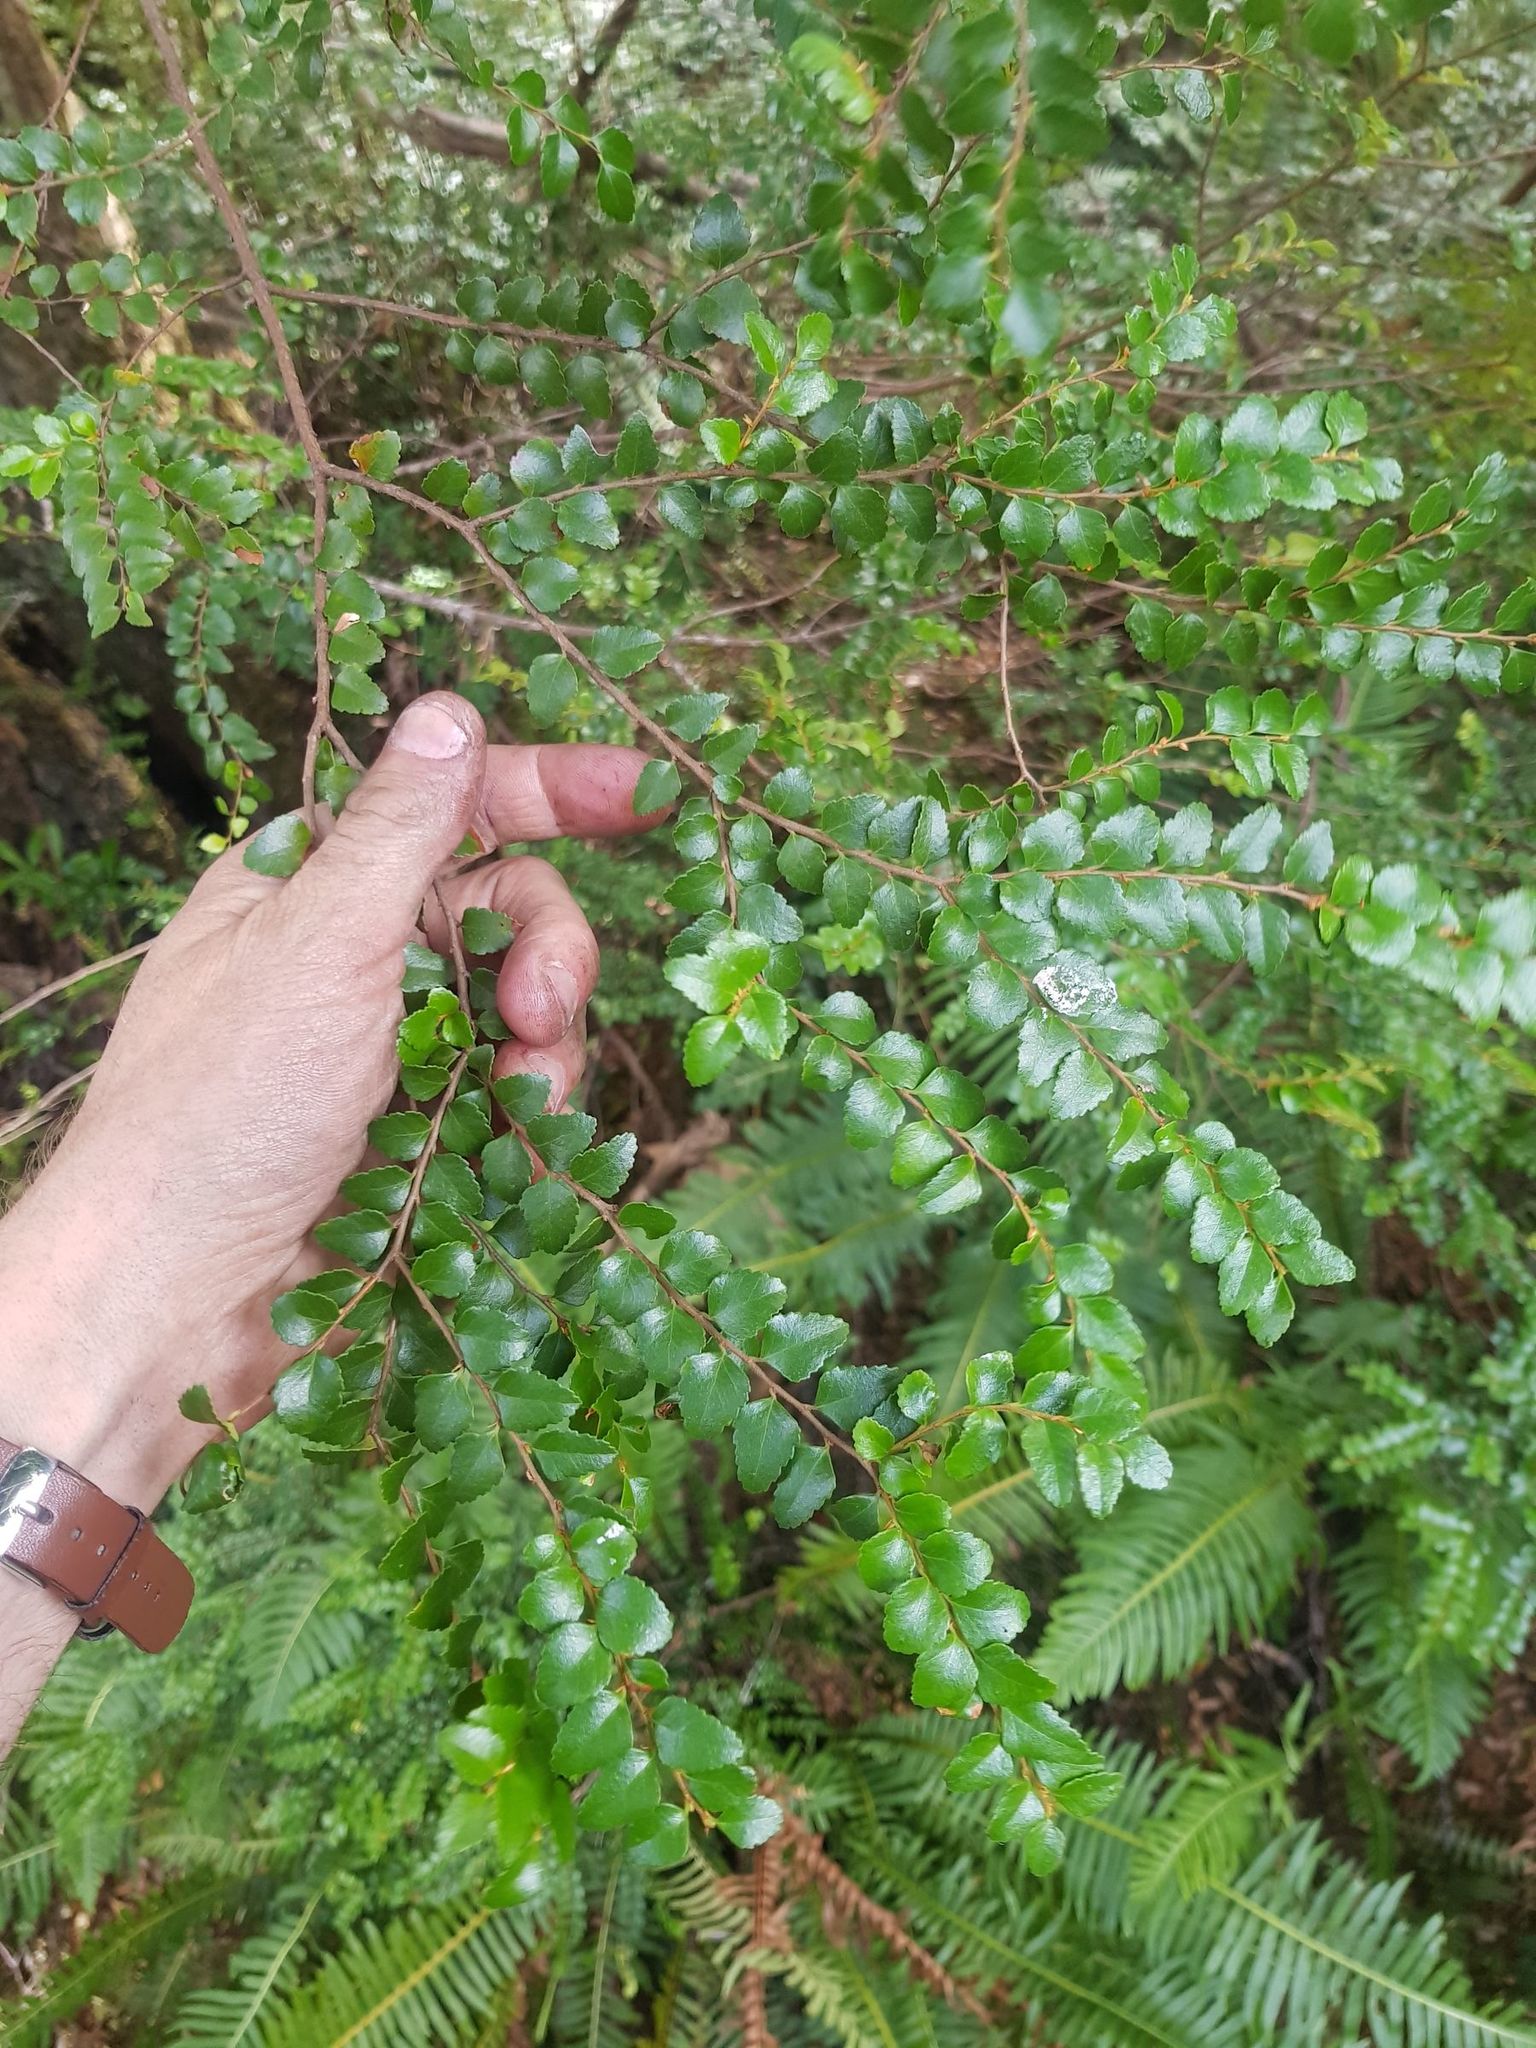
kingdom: Plantae
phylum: Tracheophyta
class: Magnoliopsida
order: Fagales
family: Nothofagaceae
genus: Nothofagus
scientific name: Nothofagus cunninghamii
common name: Myrtle beech
